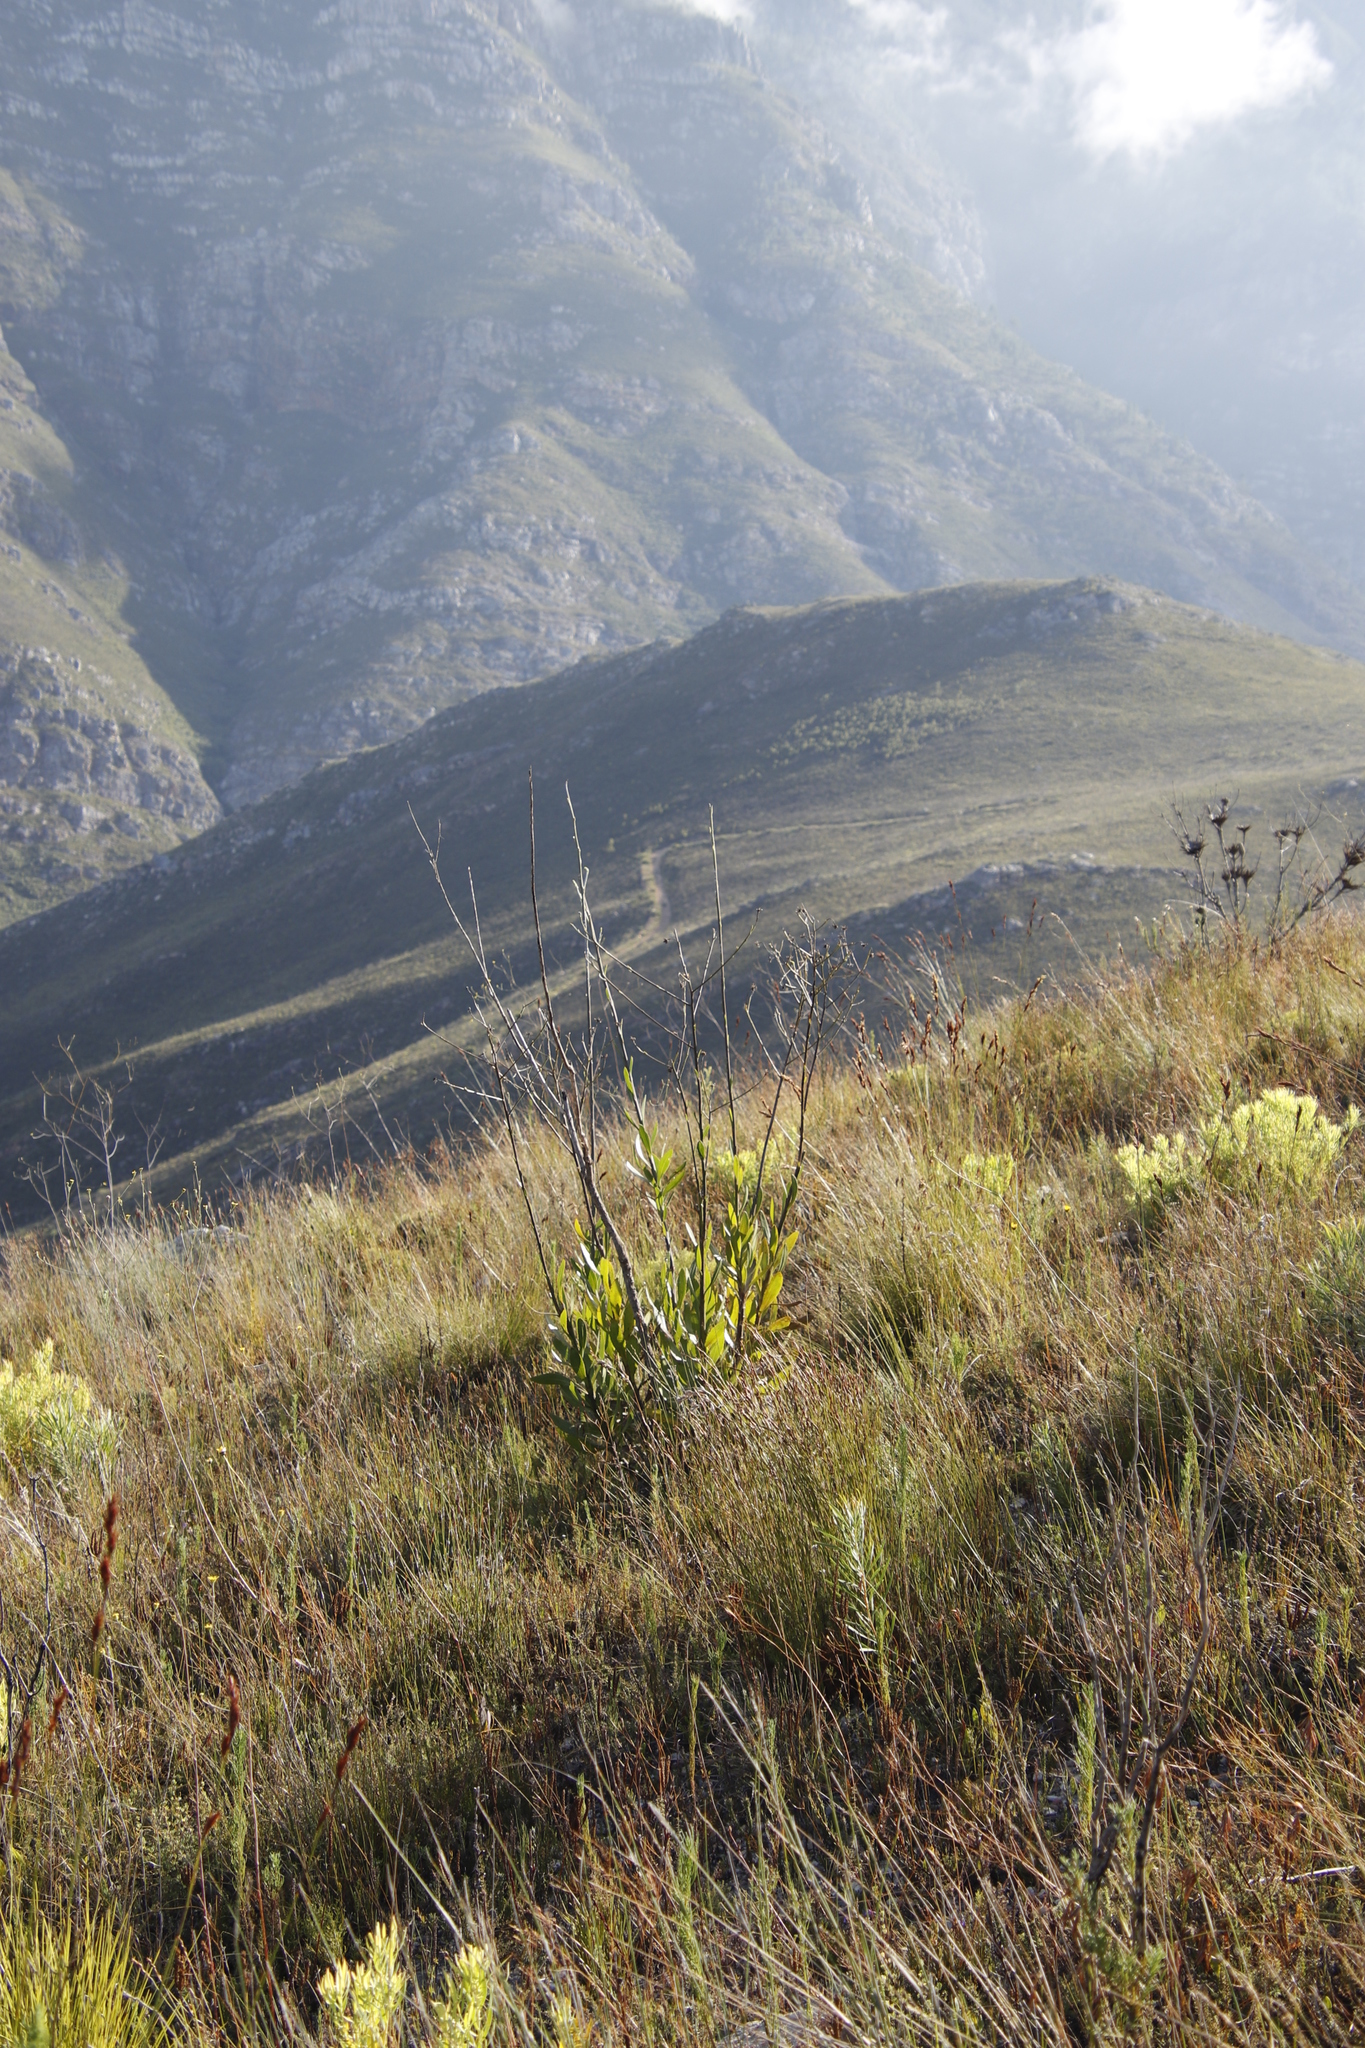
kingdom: Plantae
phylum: Tracheophyta
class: Magnoliopsida
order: Asterales
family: Asteraceae
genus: Othonna
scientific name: Othonna quinquedentata
